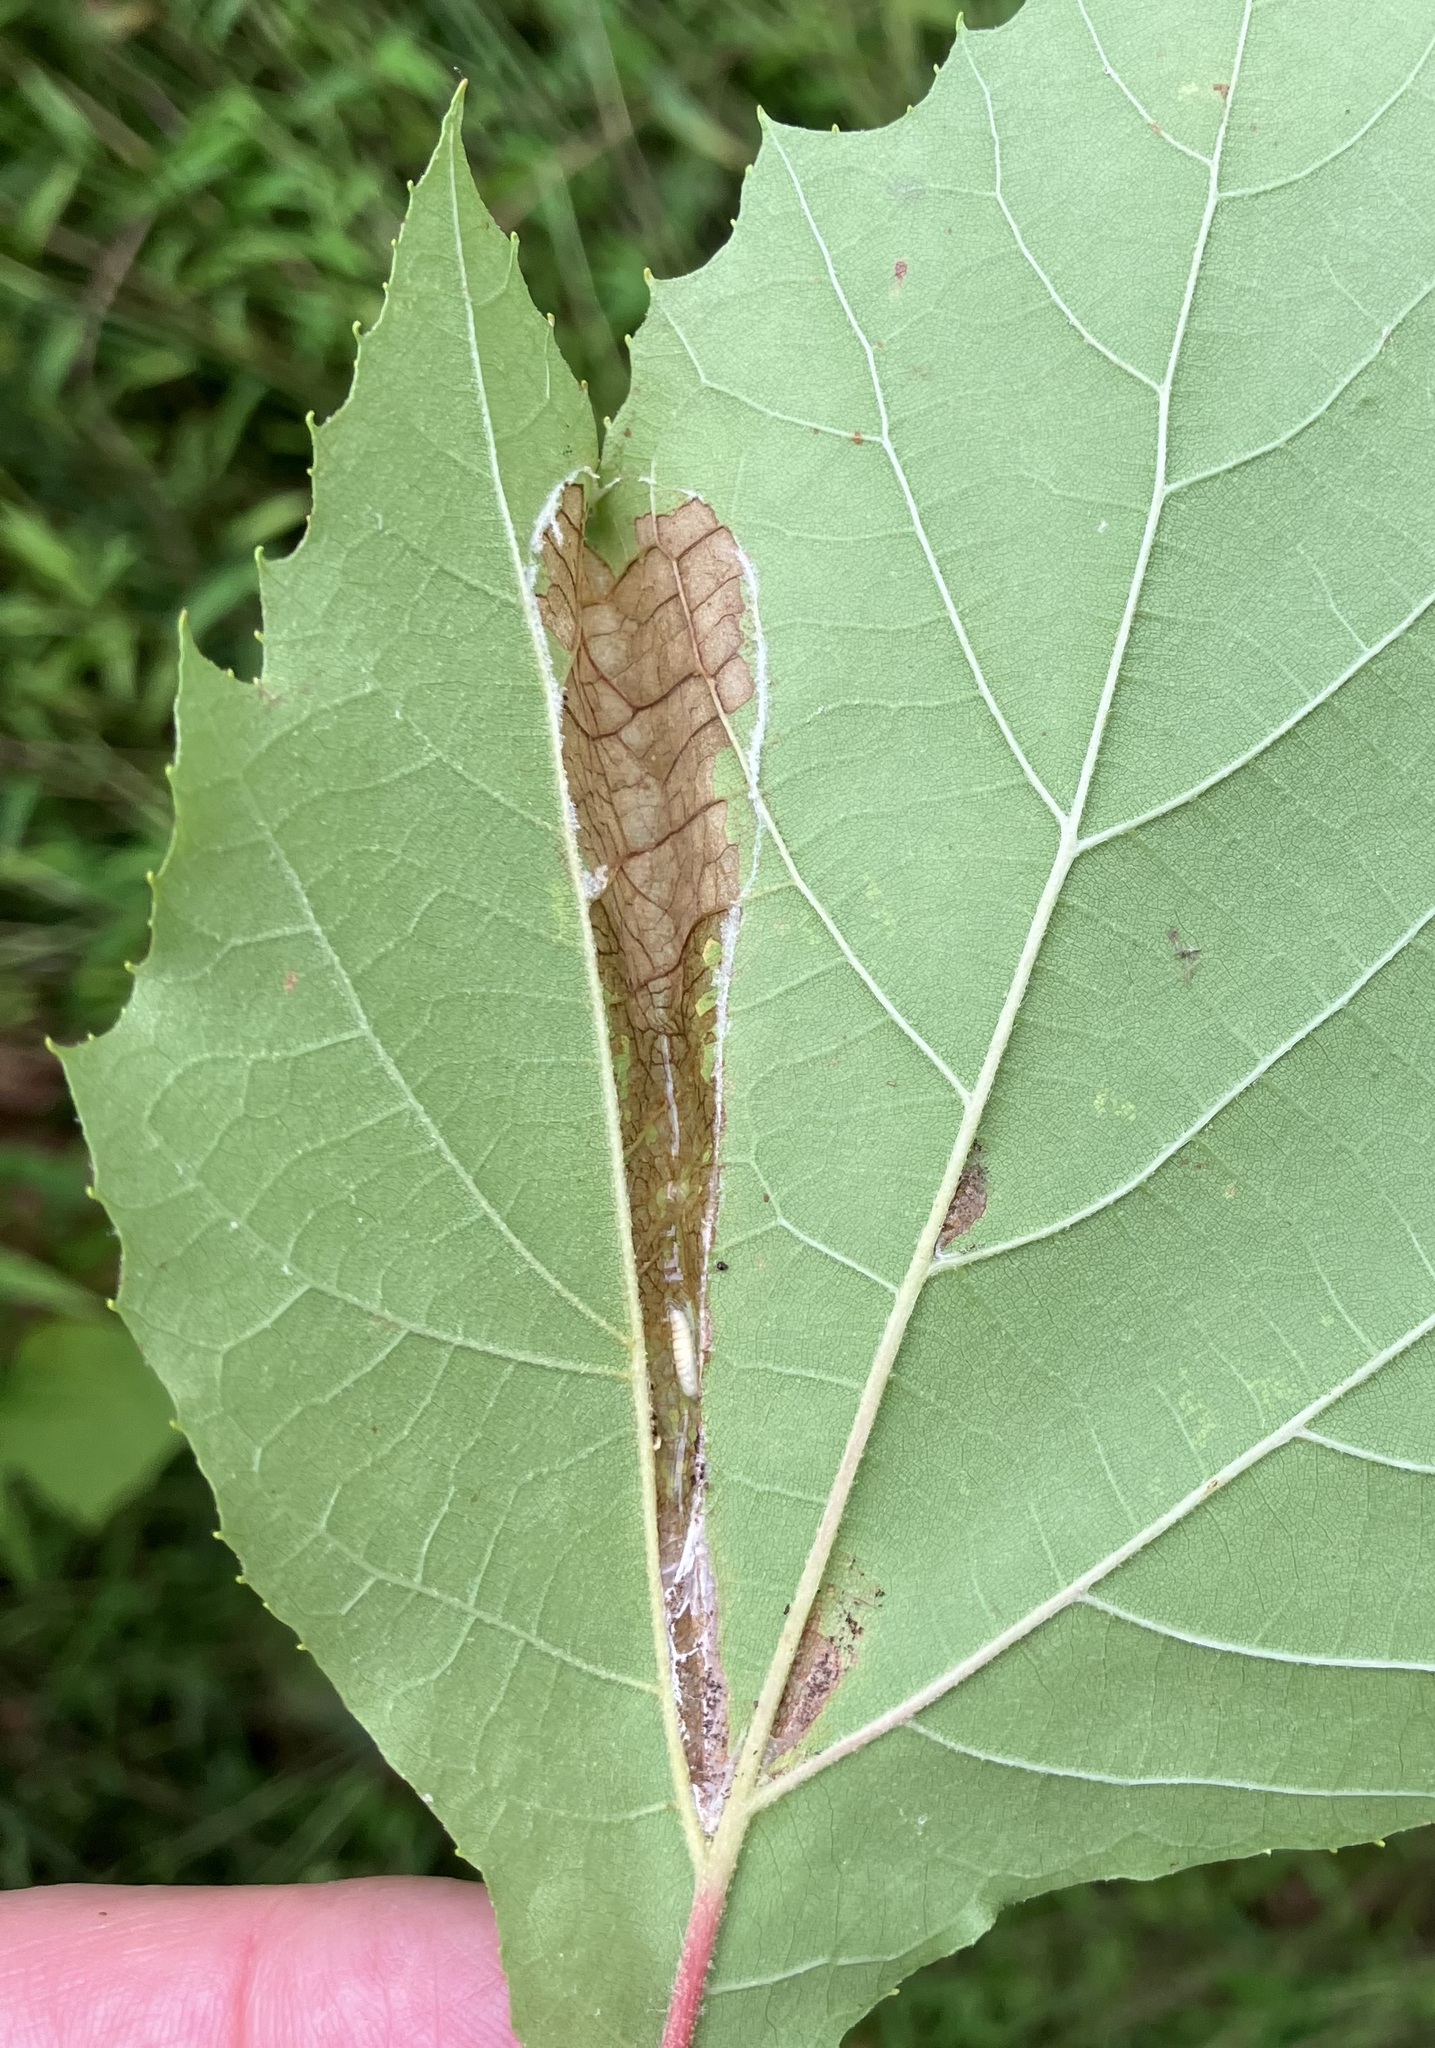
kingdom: Animalia
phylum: Arthropoda
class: Insecta
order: Lepidoptera
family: Tortricidae
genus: Ancylis
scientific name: Ancylis platanana
